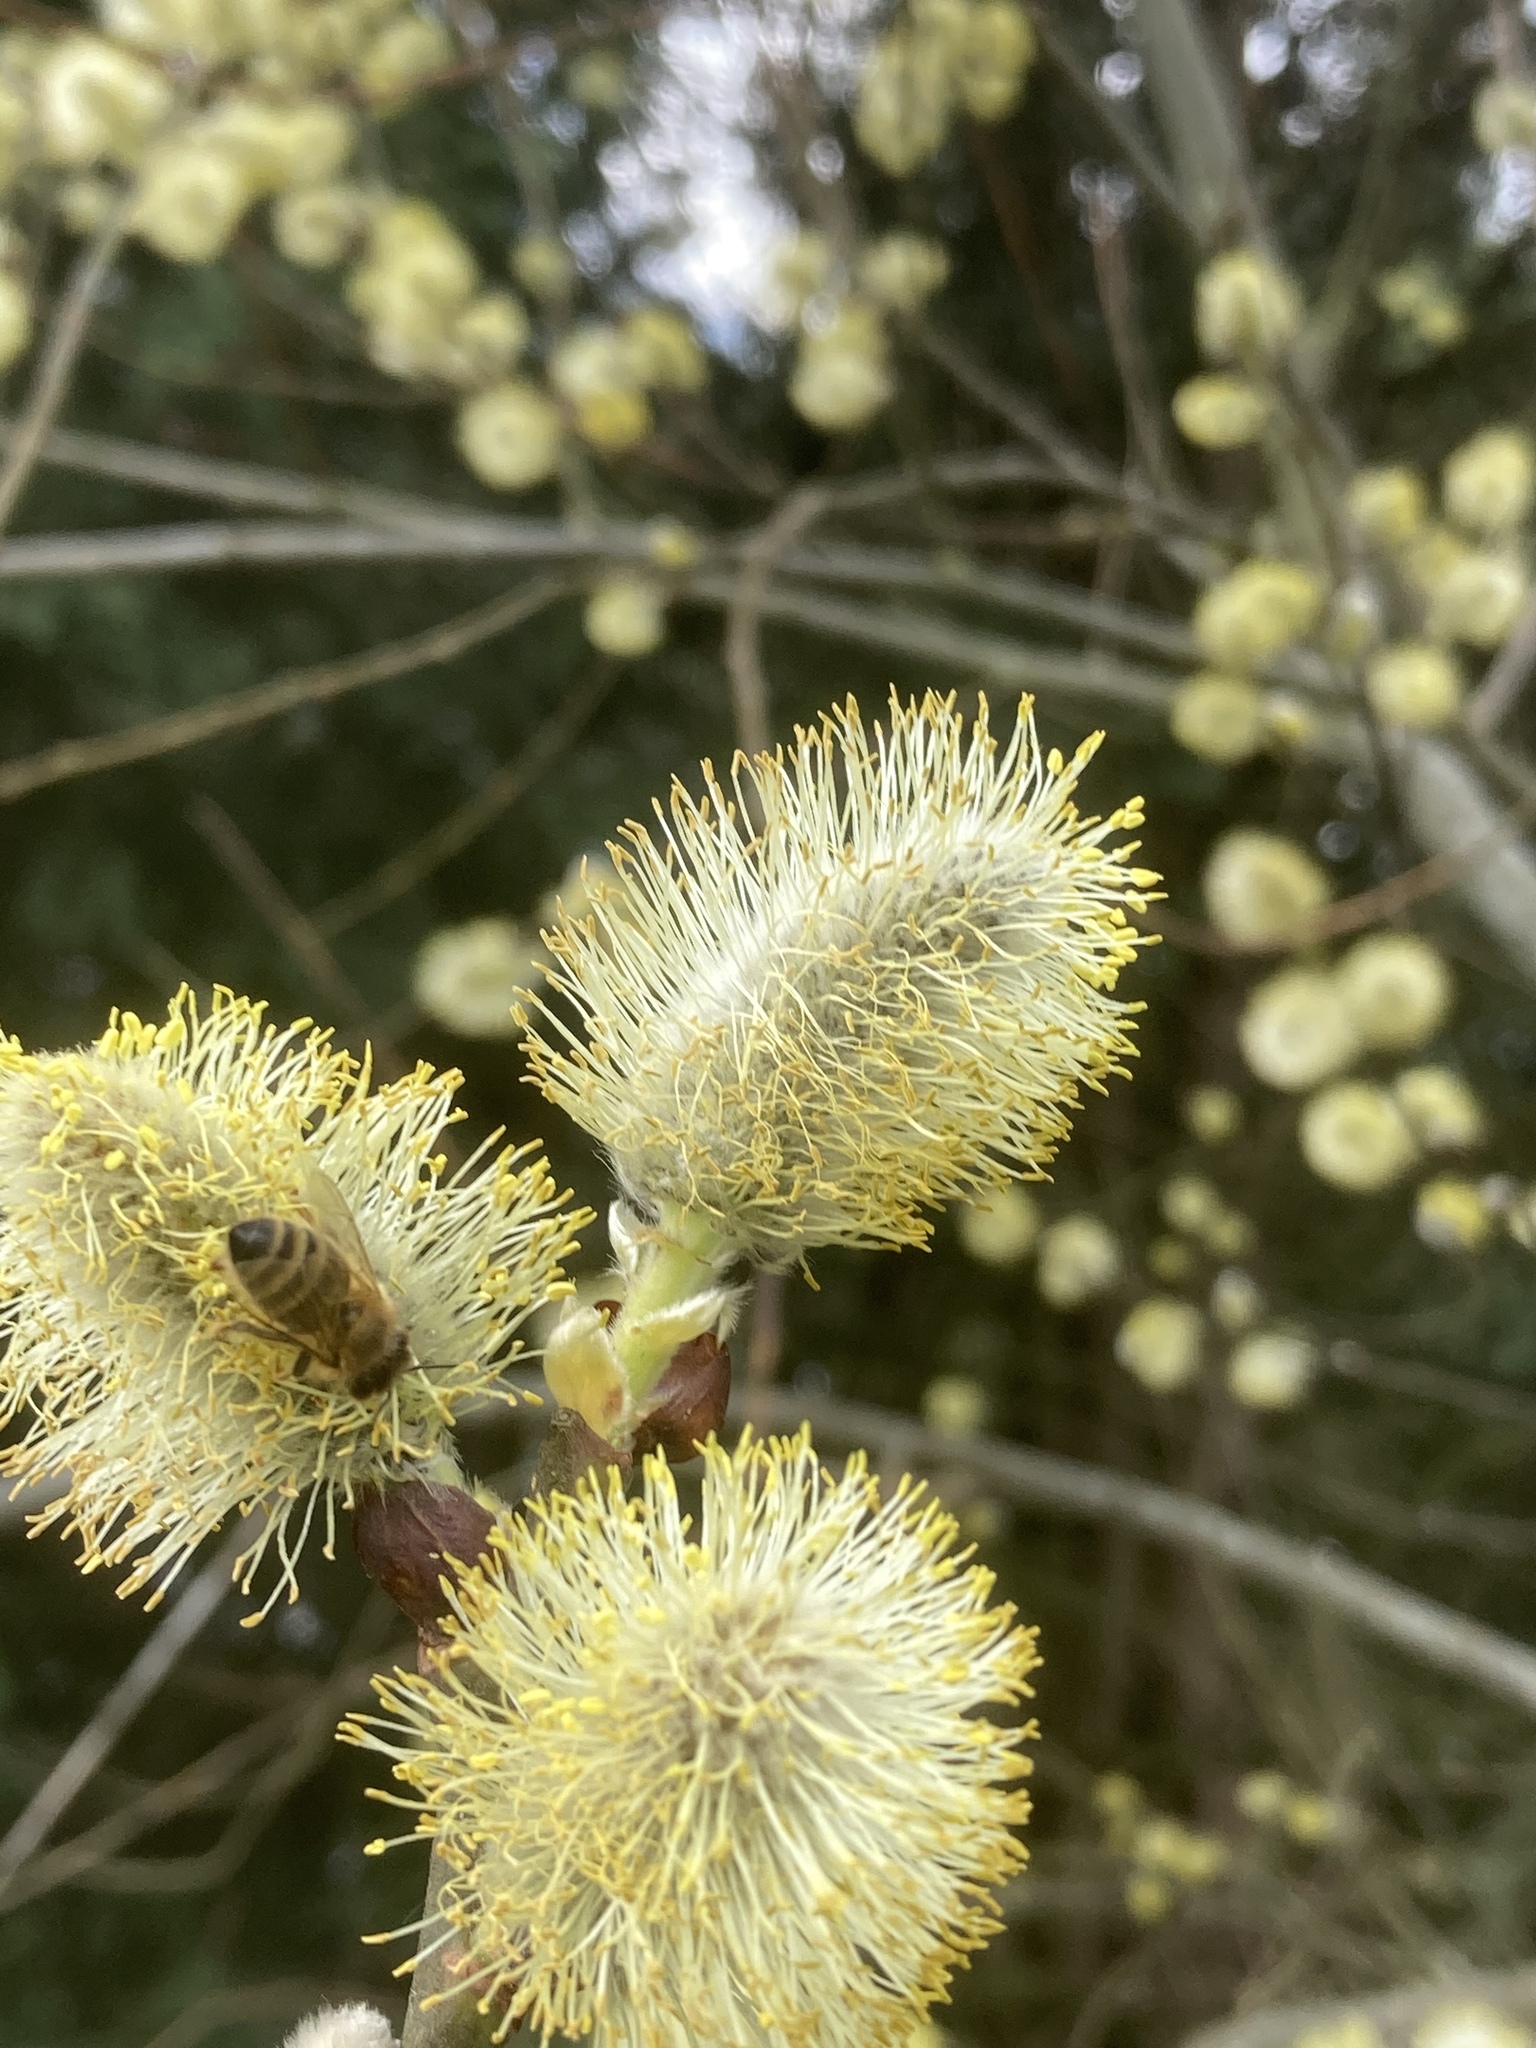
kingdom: Animalia
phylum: Arthropoda
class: Insecta
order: Hymenoptera
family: Apidae
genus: Apis
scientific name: Apis mellifera
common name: Honey bee
